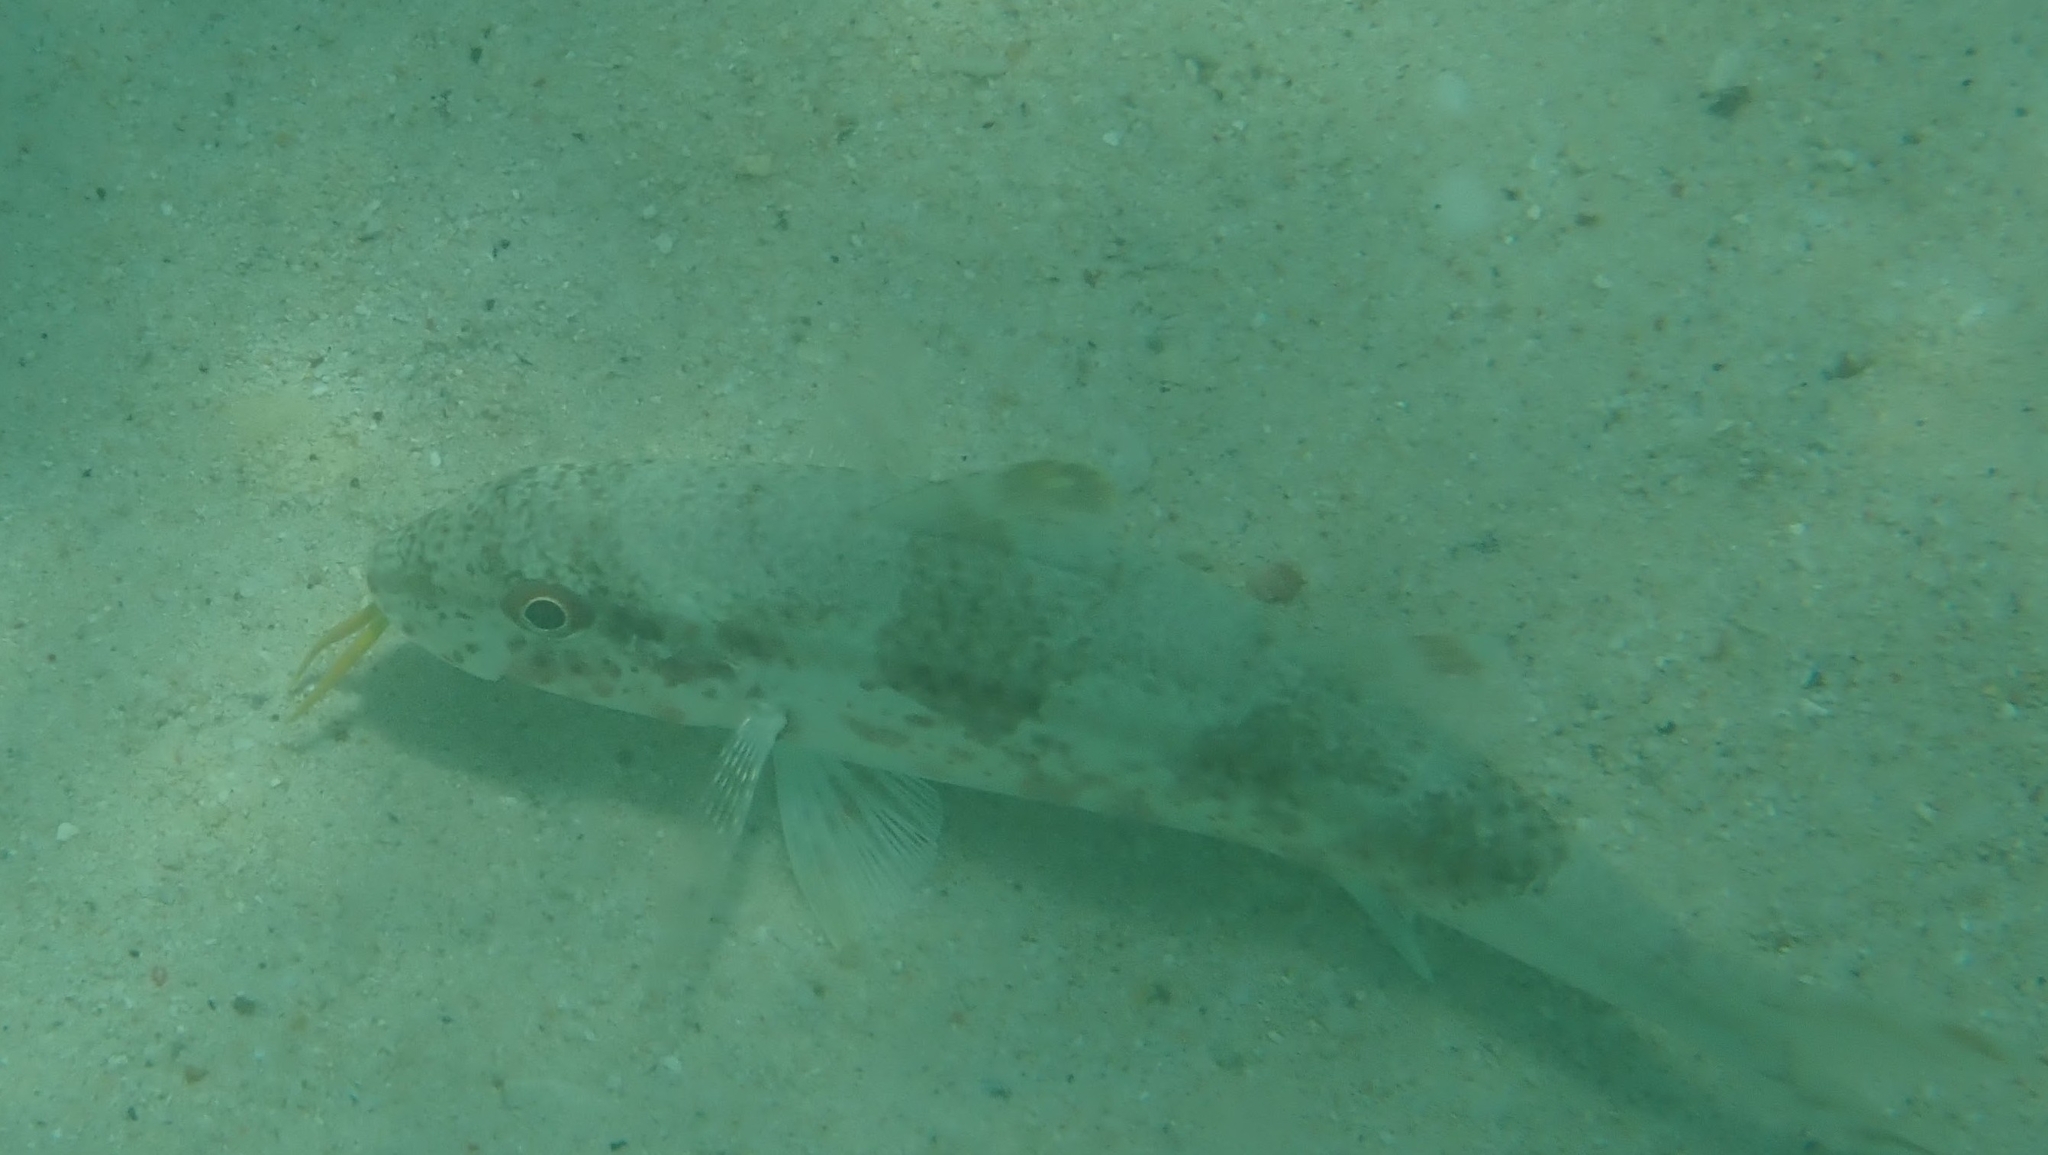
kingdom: Animalia
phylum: Chordata
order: Perciformes
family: Mullidae
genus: Upeneus
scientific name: Upeneus tragula
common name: Freckled goatfish
